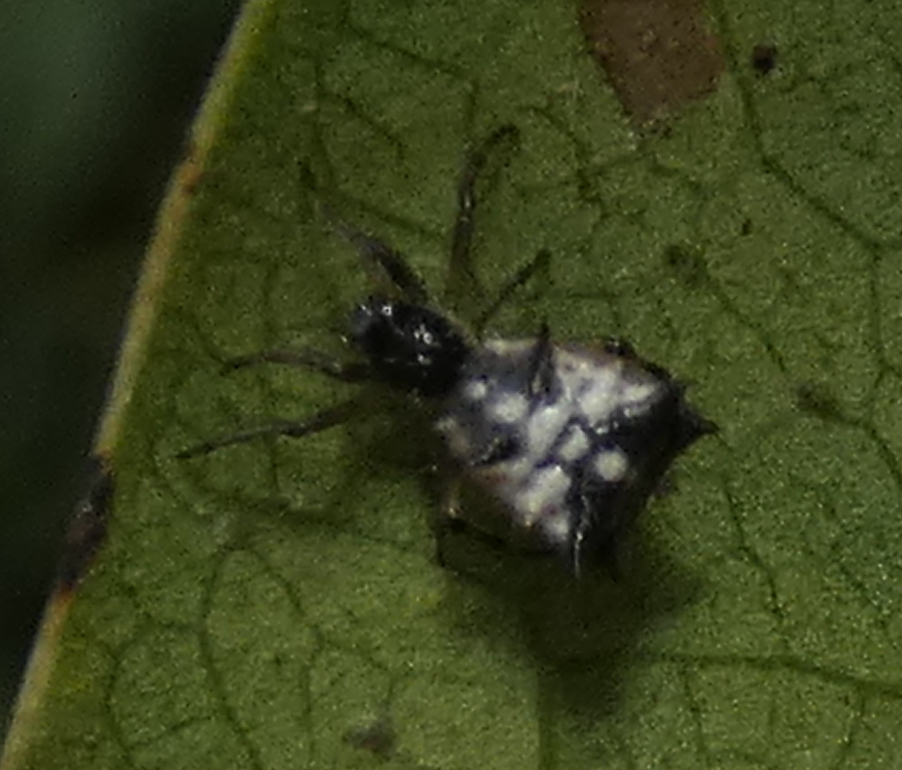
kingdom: Animalia
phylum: Arthropoda
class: Arachnida
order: Araneae
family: Araneidae
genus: Micrathena
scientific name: Micrathena picta
